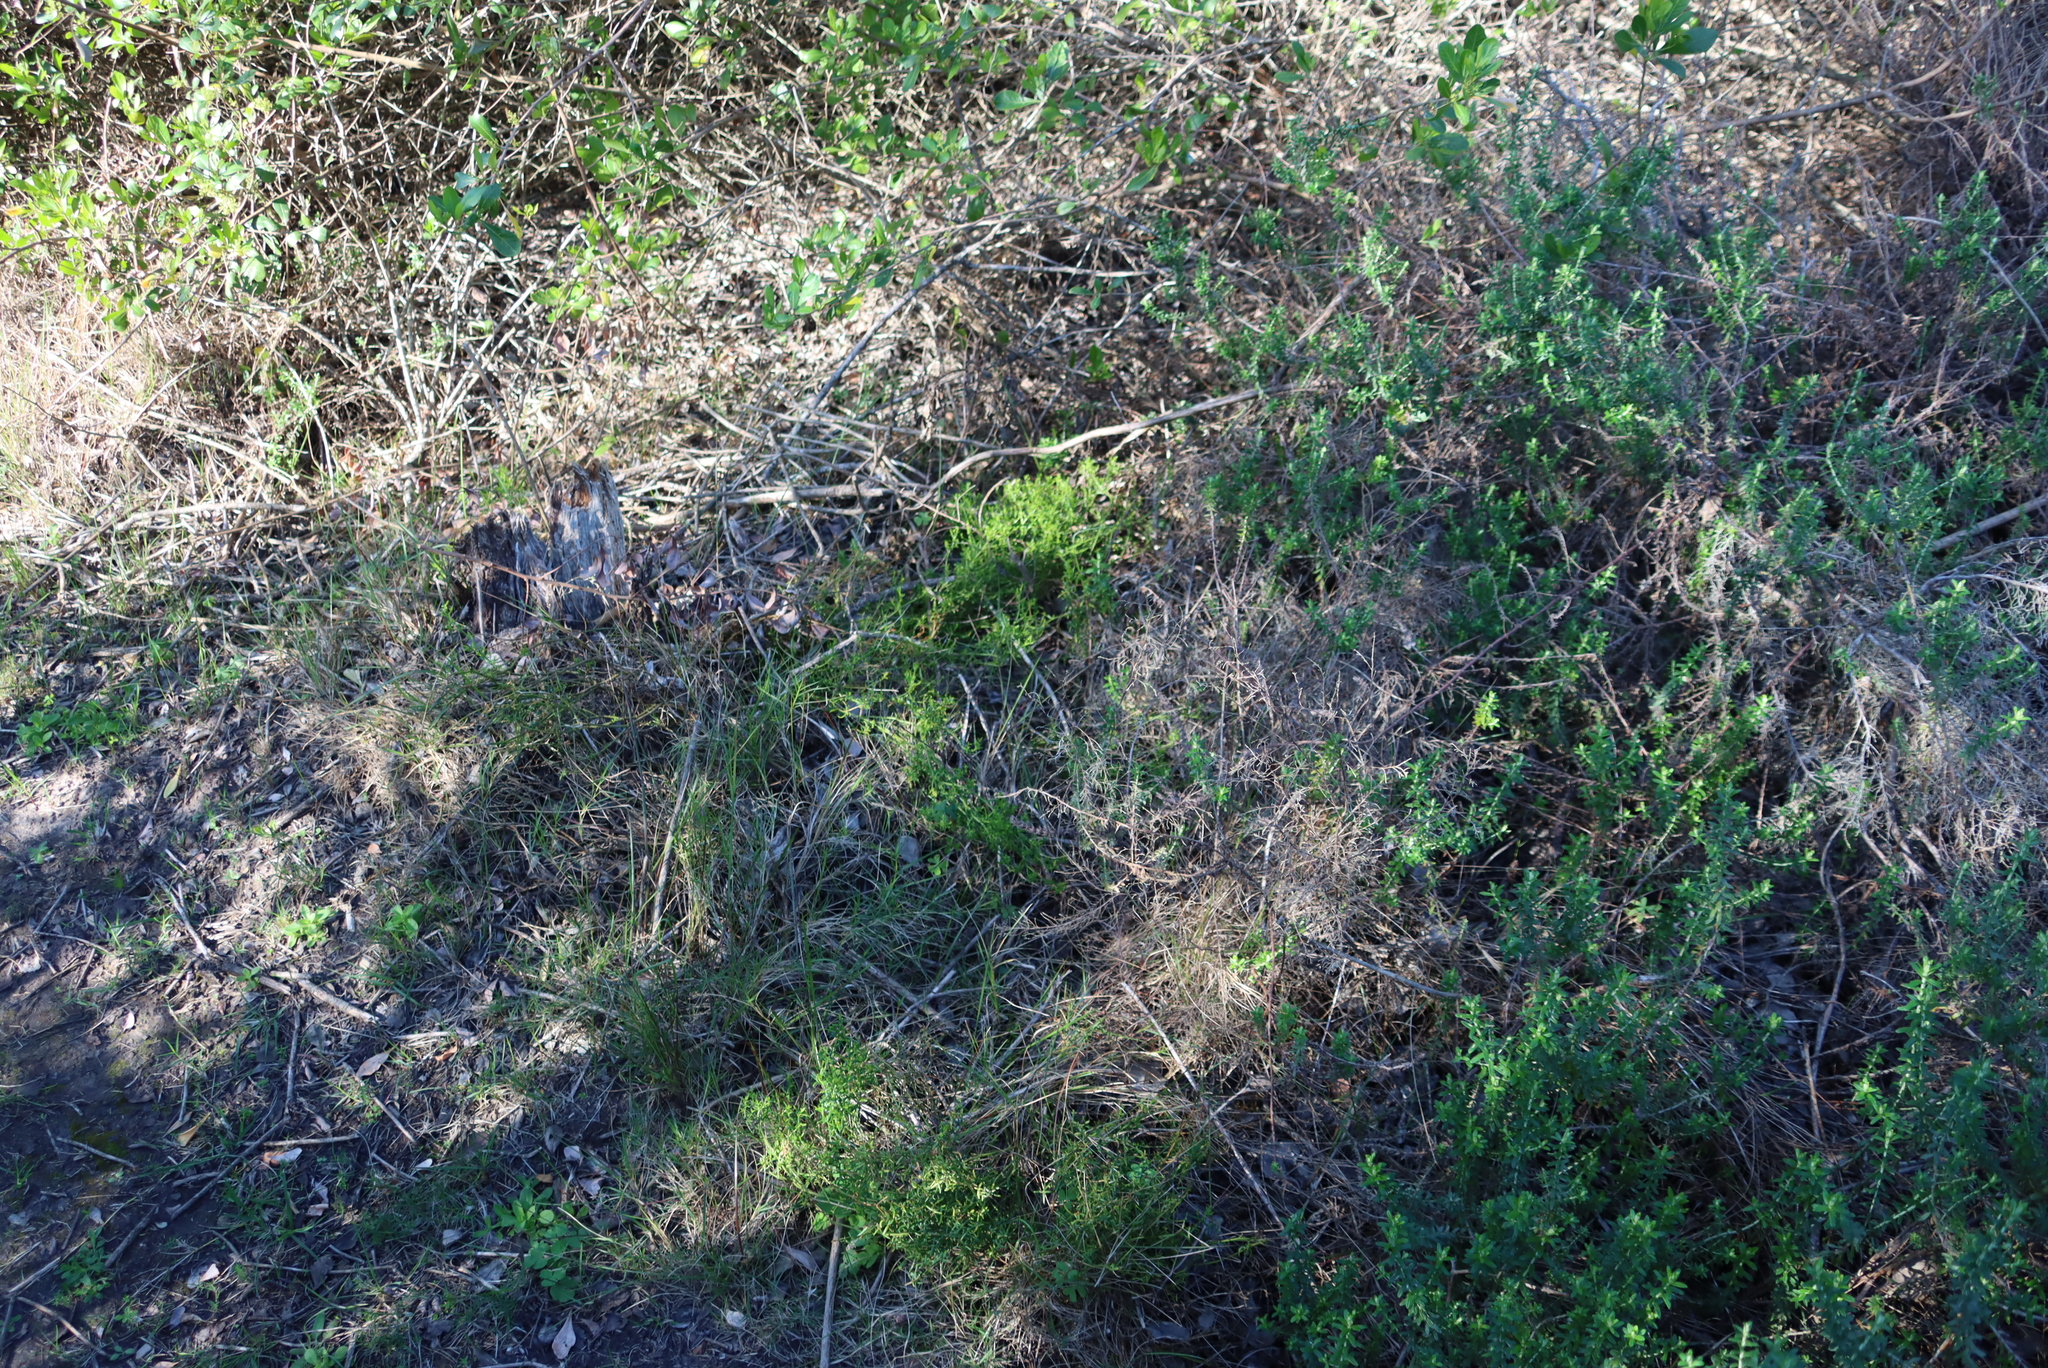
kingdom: Plantae
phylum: Tracheophyta
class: Magnoliopsida
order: Gentianales
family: Gentianaceae
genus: Chironia
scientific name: Chironia baccifera
